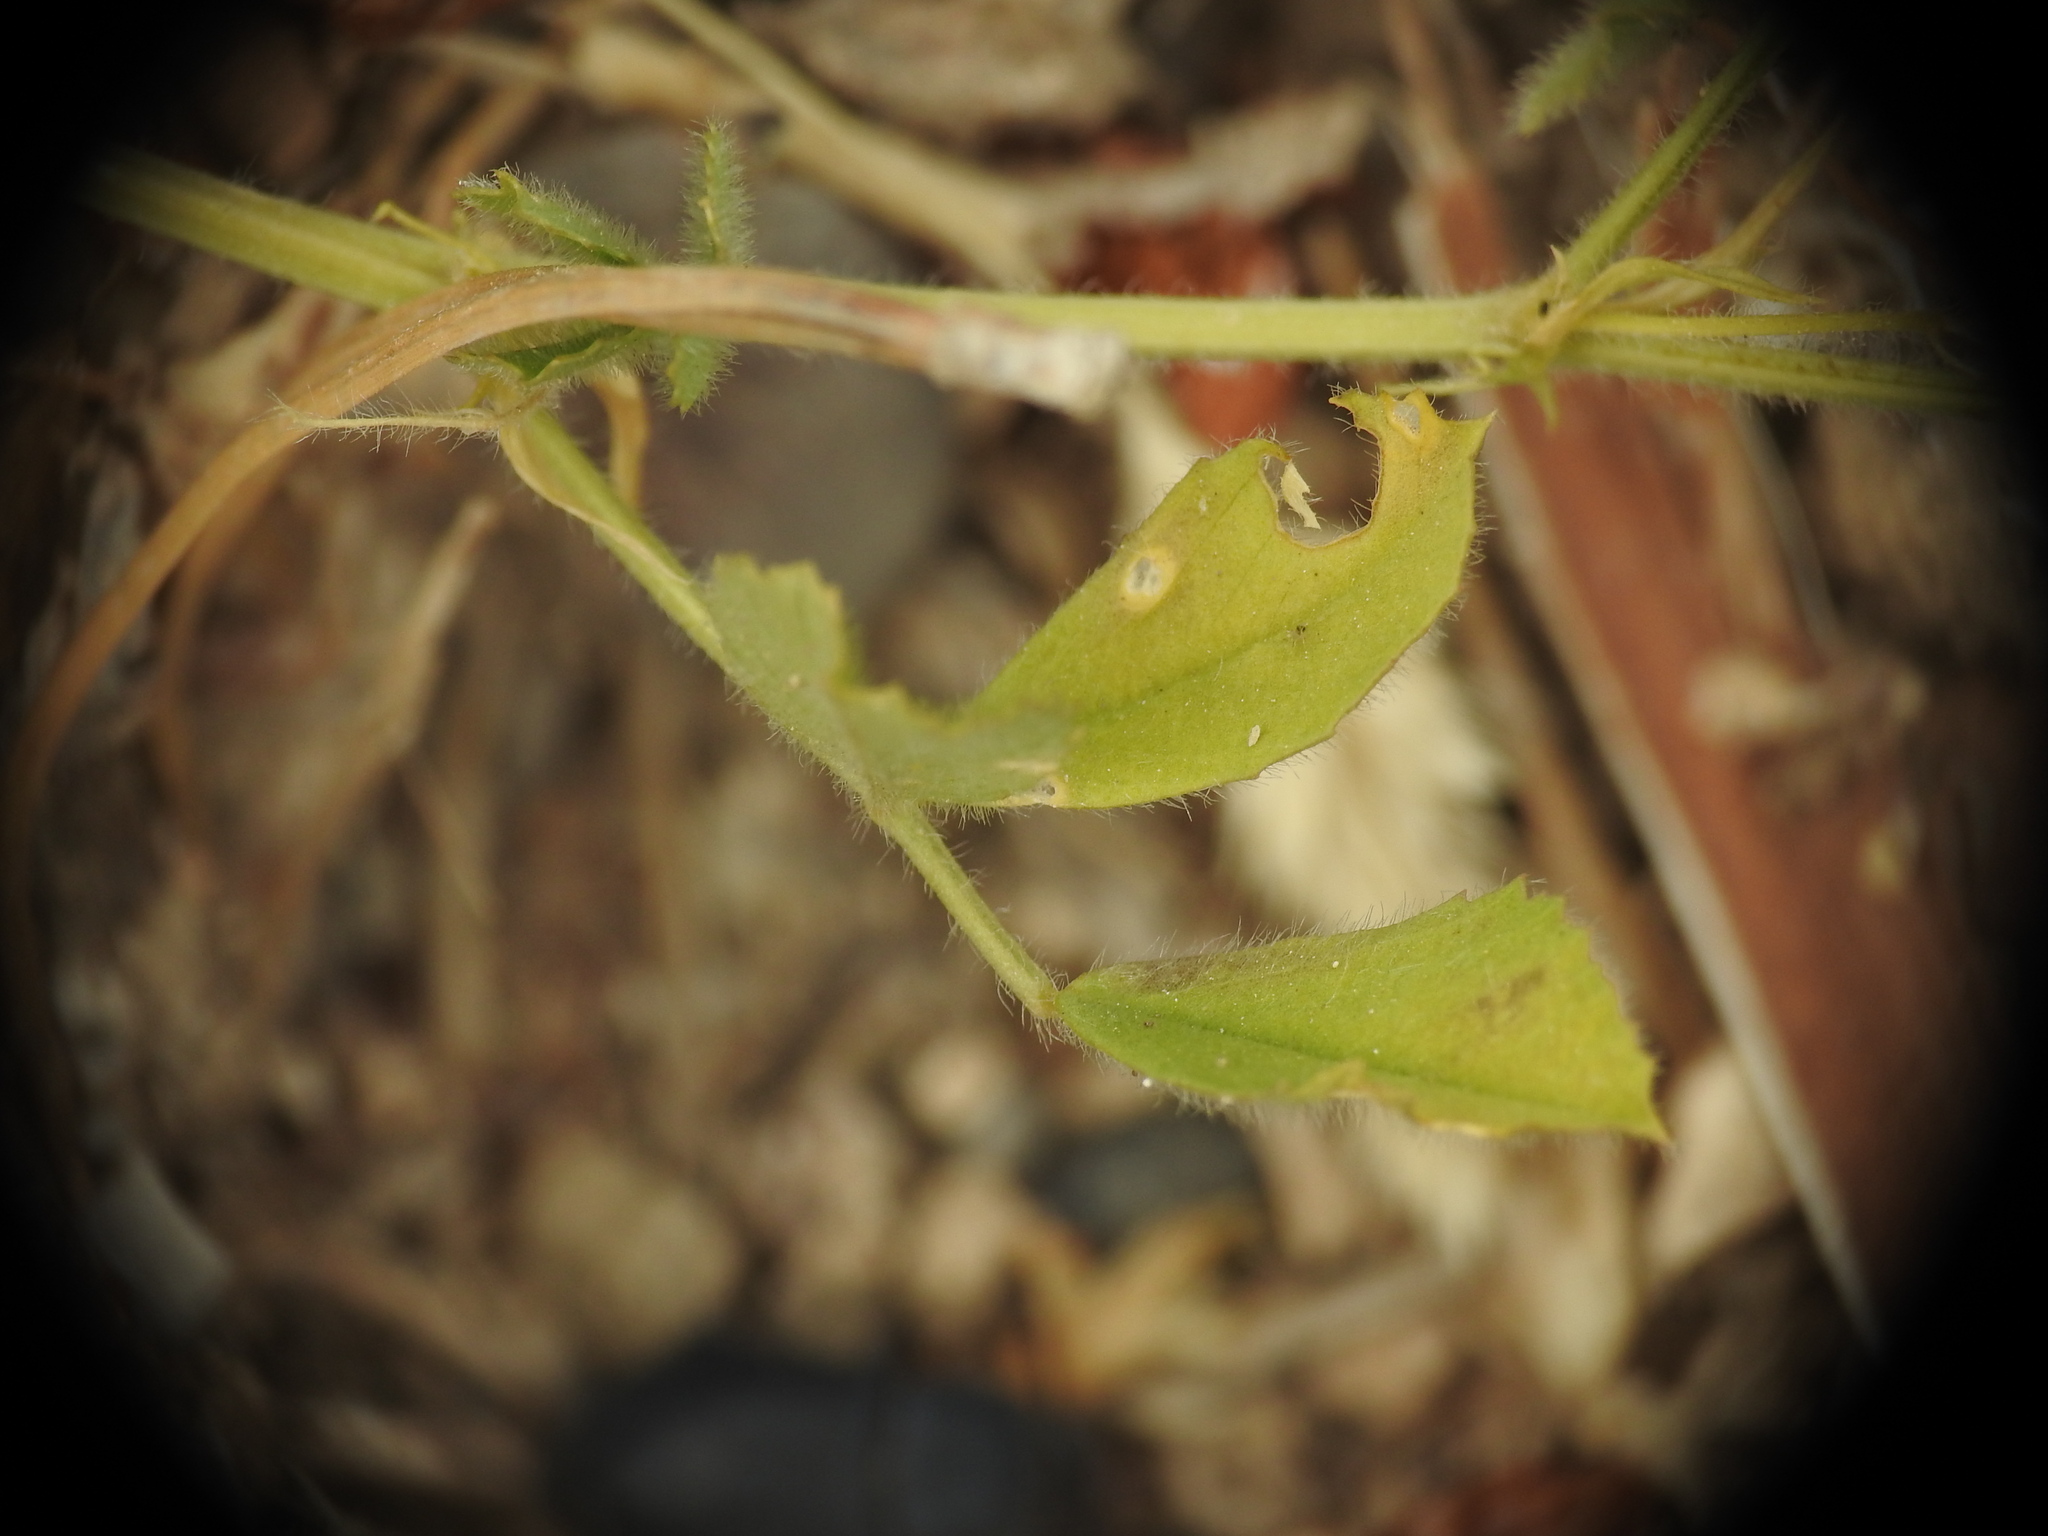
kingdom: Plantae
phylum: Tracheophyta
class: Magnoliopsida
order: Fabales
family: Fabaceae
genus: Medicago
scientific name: Medicago truncatula
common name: Strong-spined medick
